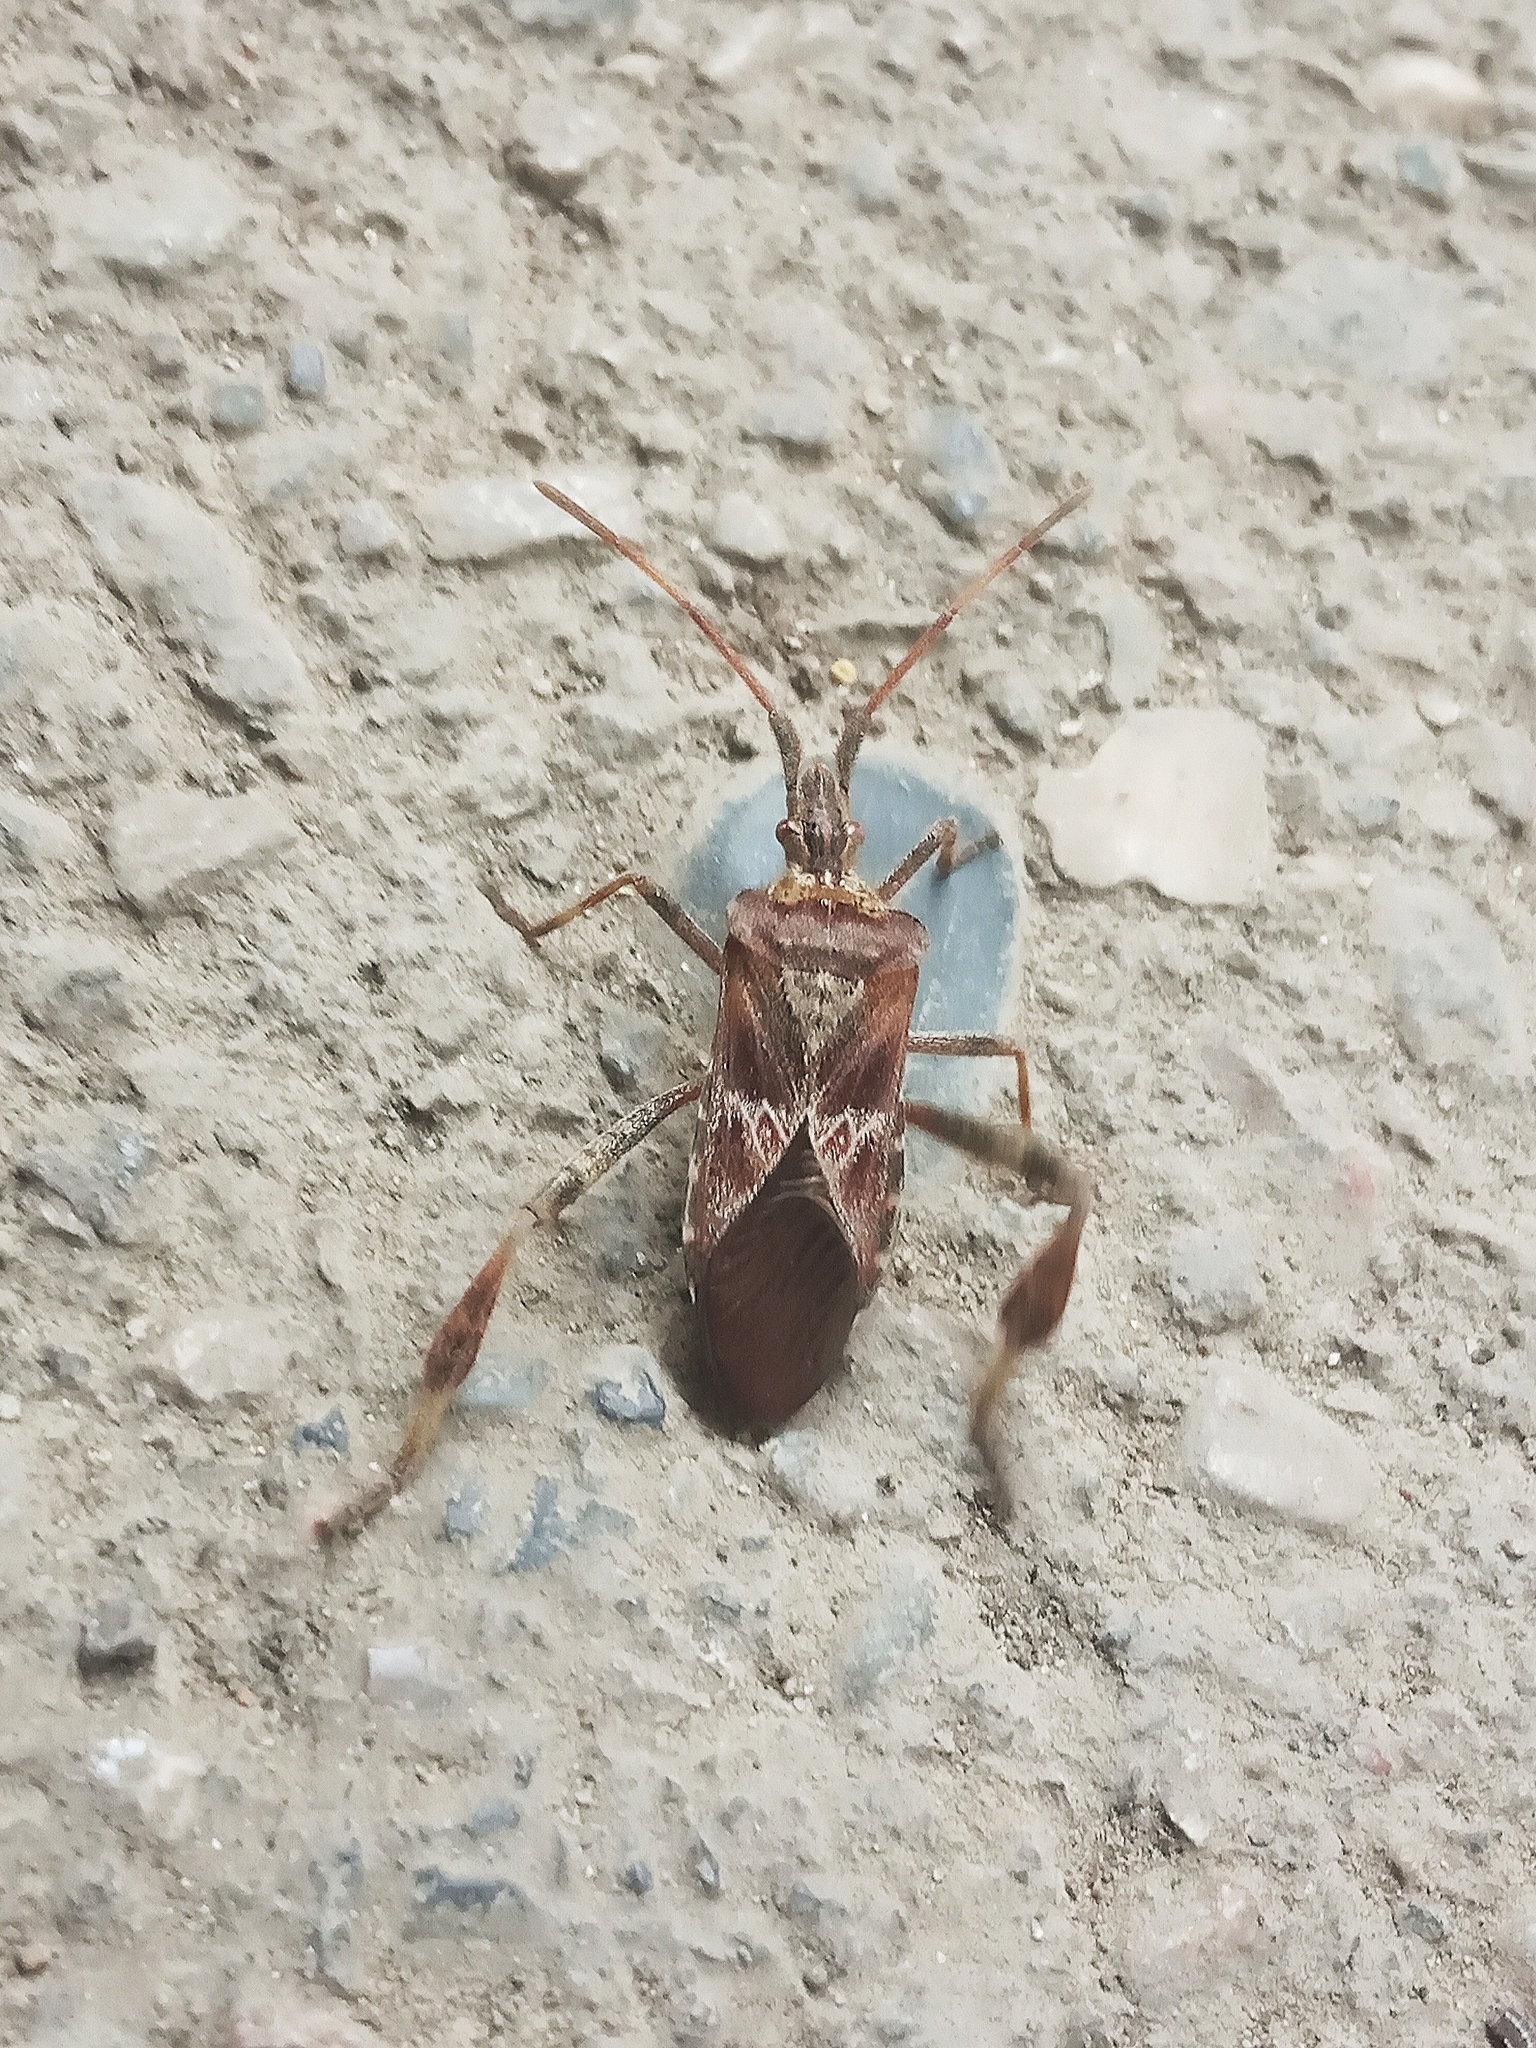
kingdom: Animalia
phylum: Arthropoda
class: Insecta
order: Hemiptera
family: Coreidae
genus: Leptoglossus
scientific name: Leptoglossus occidentalis
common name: Western conifer-seed bug
